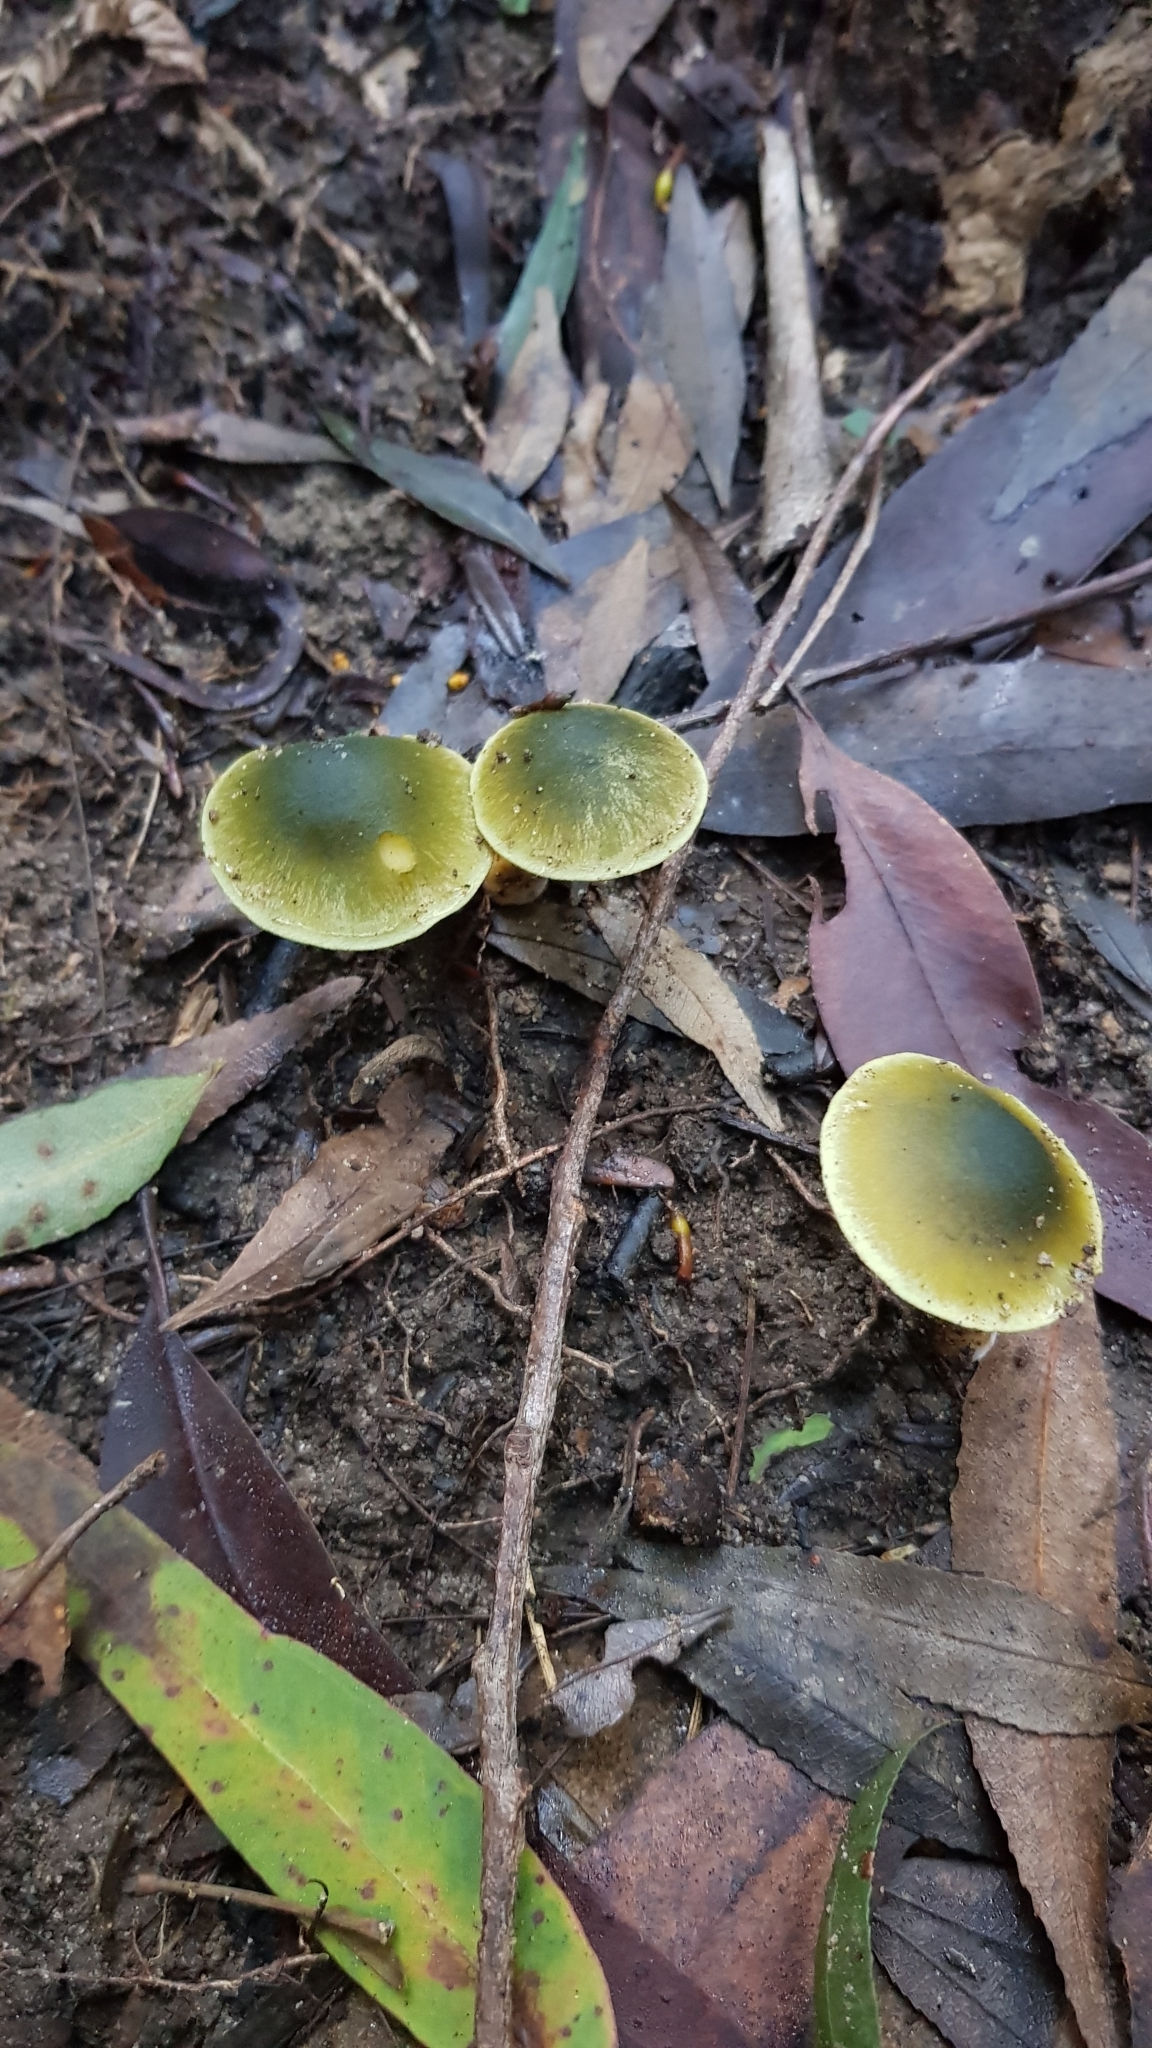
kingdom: Fungi
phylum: Basidiomycota
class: Agaricomycetes
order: Agaricales
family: Cortinariaceae
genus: Cortinarius
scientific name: Cortinarius austrovenetus
